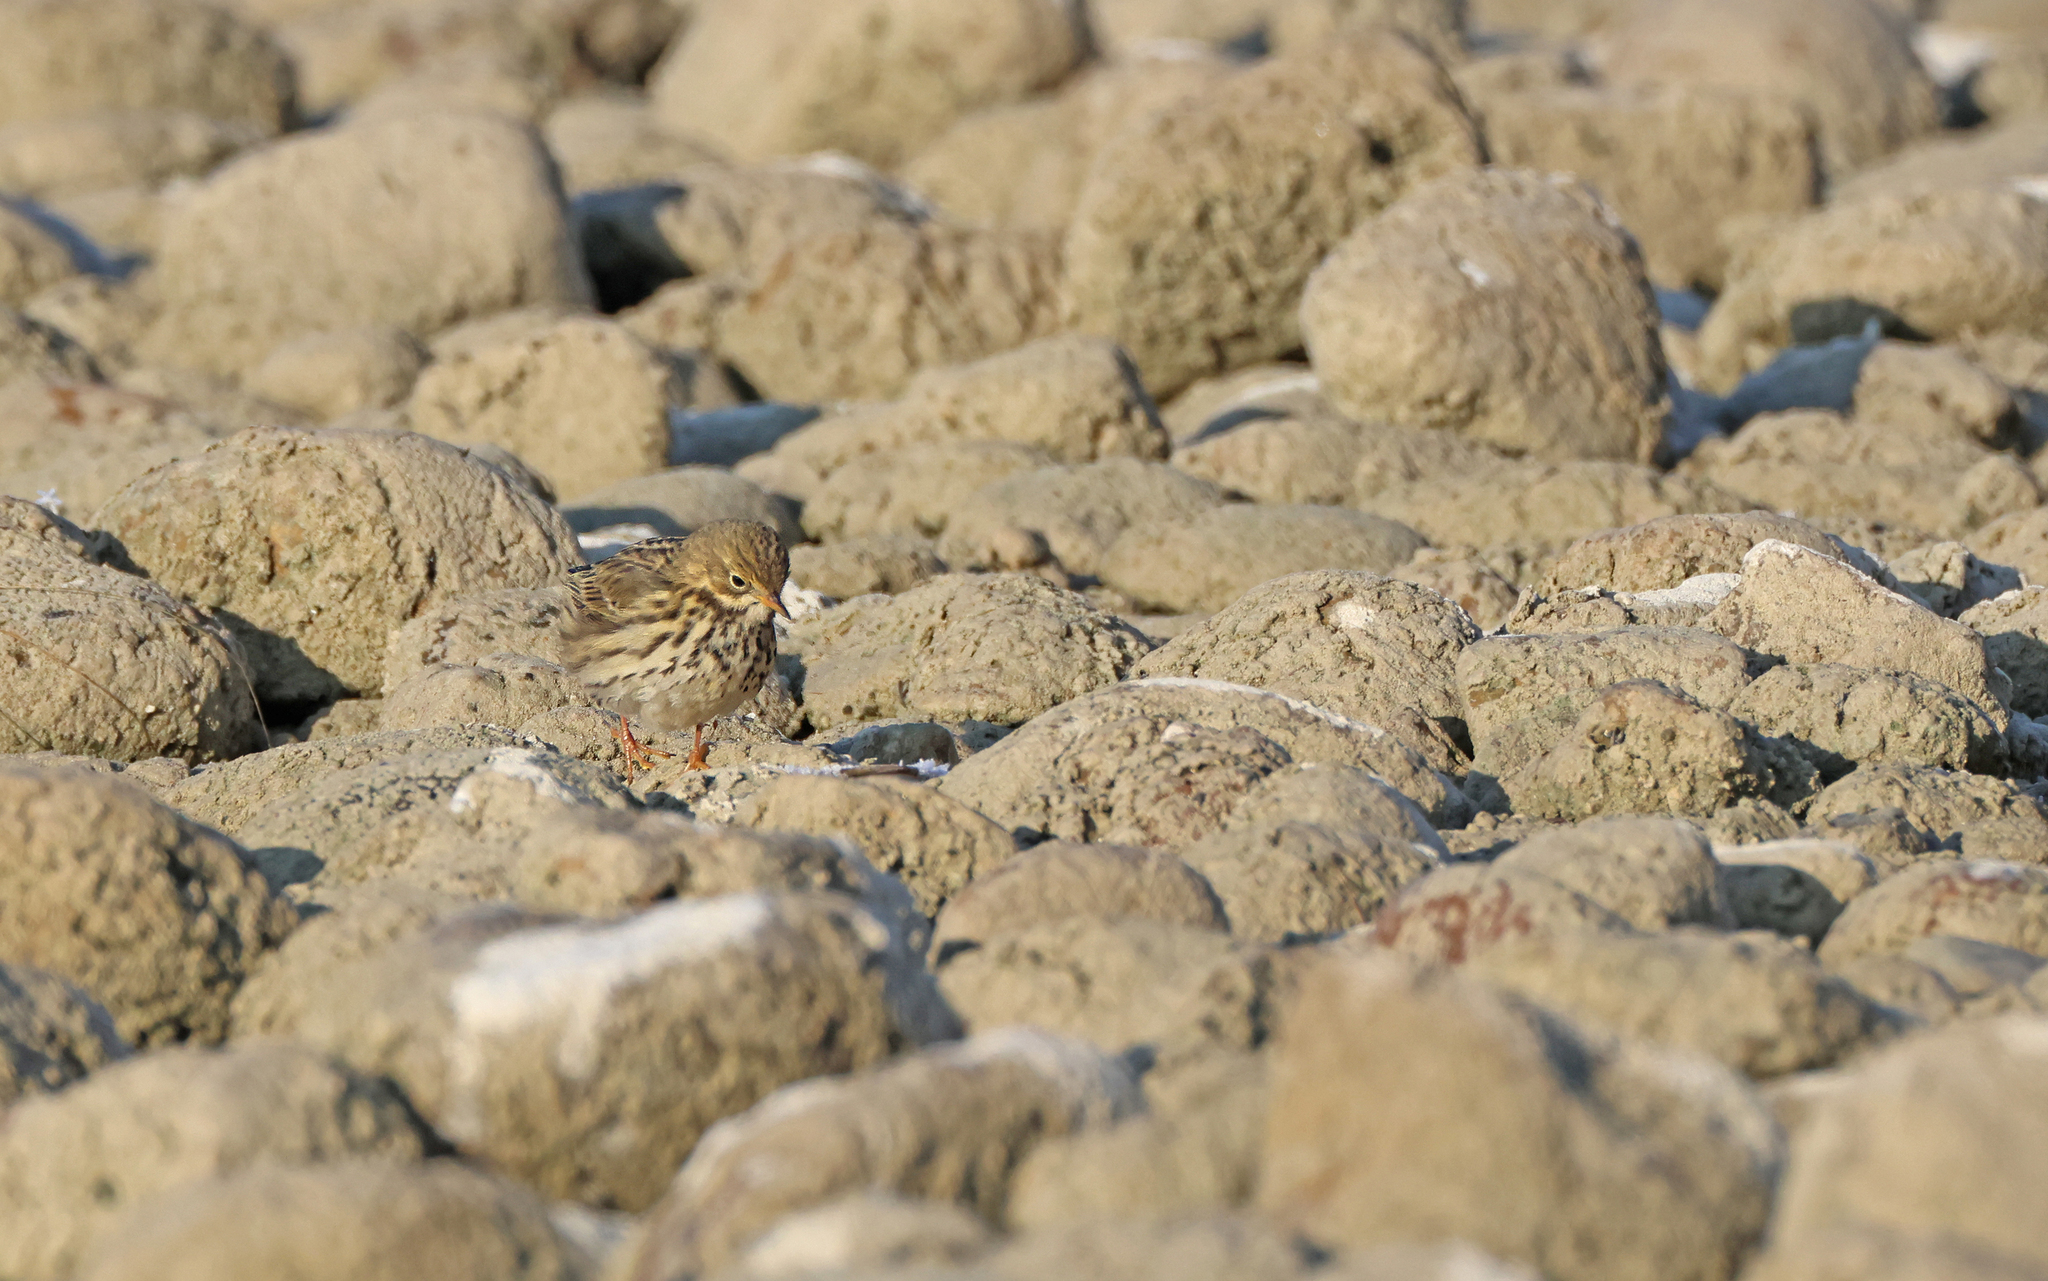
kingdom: Animalia
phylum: Chordata
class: Aves
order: Passeriformes
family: Motacillidae
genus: Anthus
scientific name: Anthus pratensis
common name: Meadow pipit
